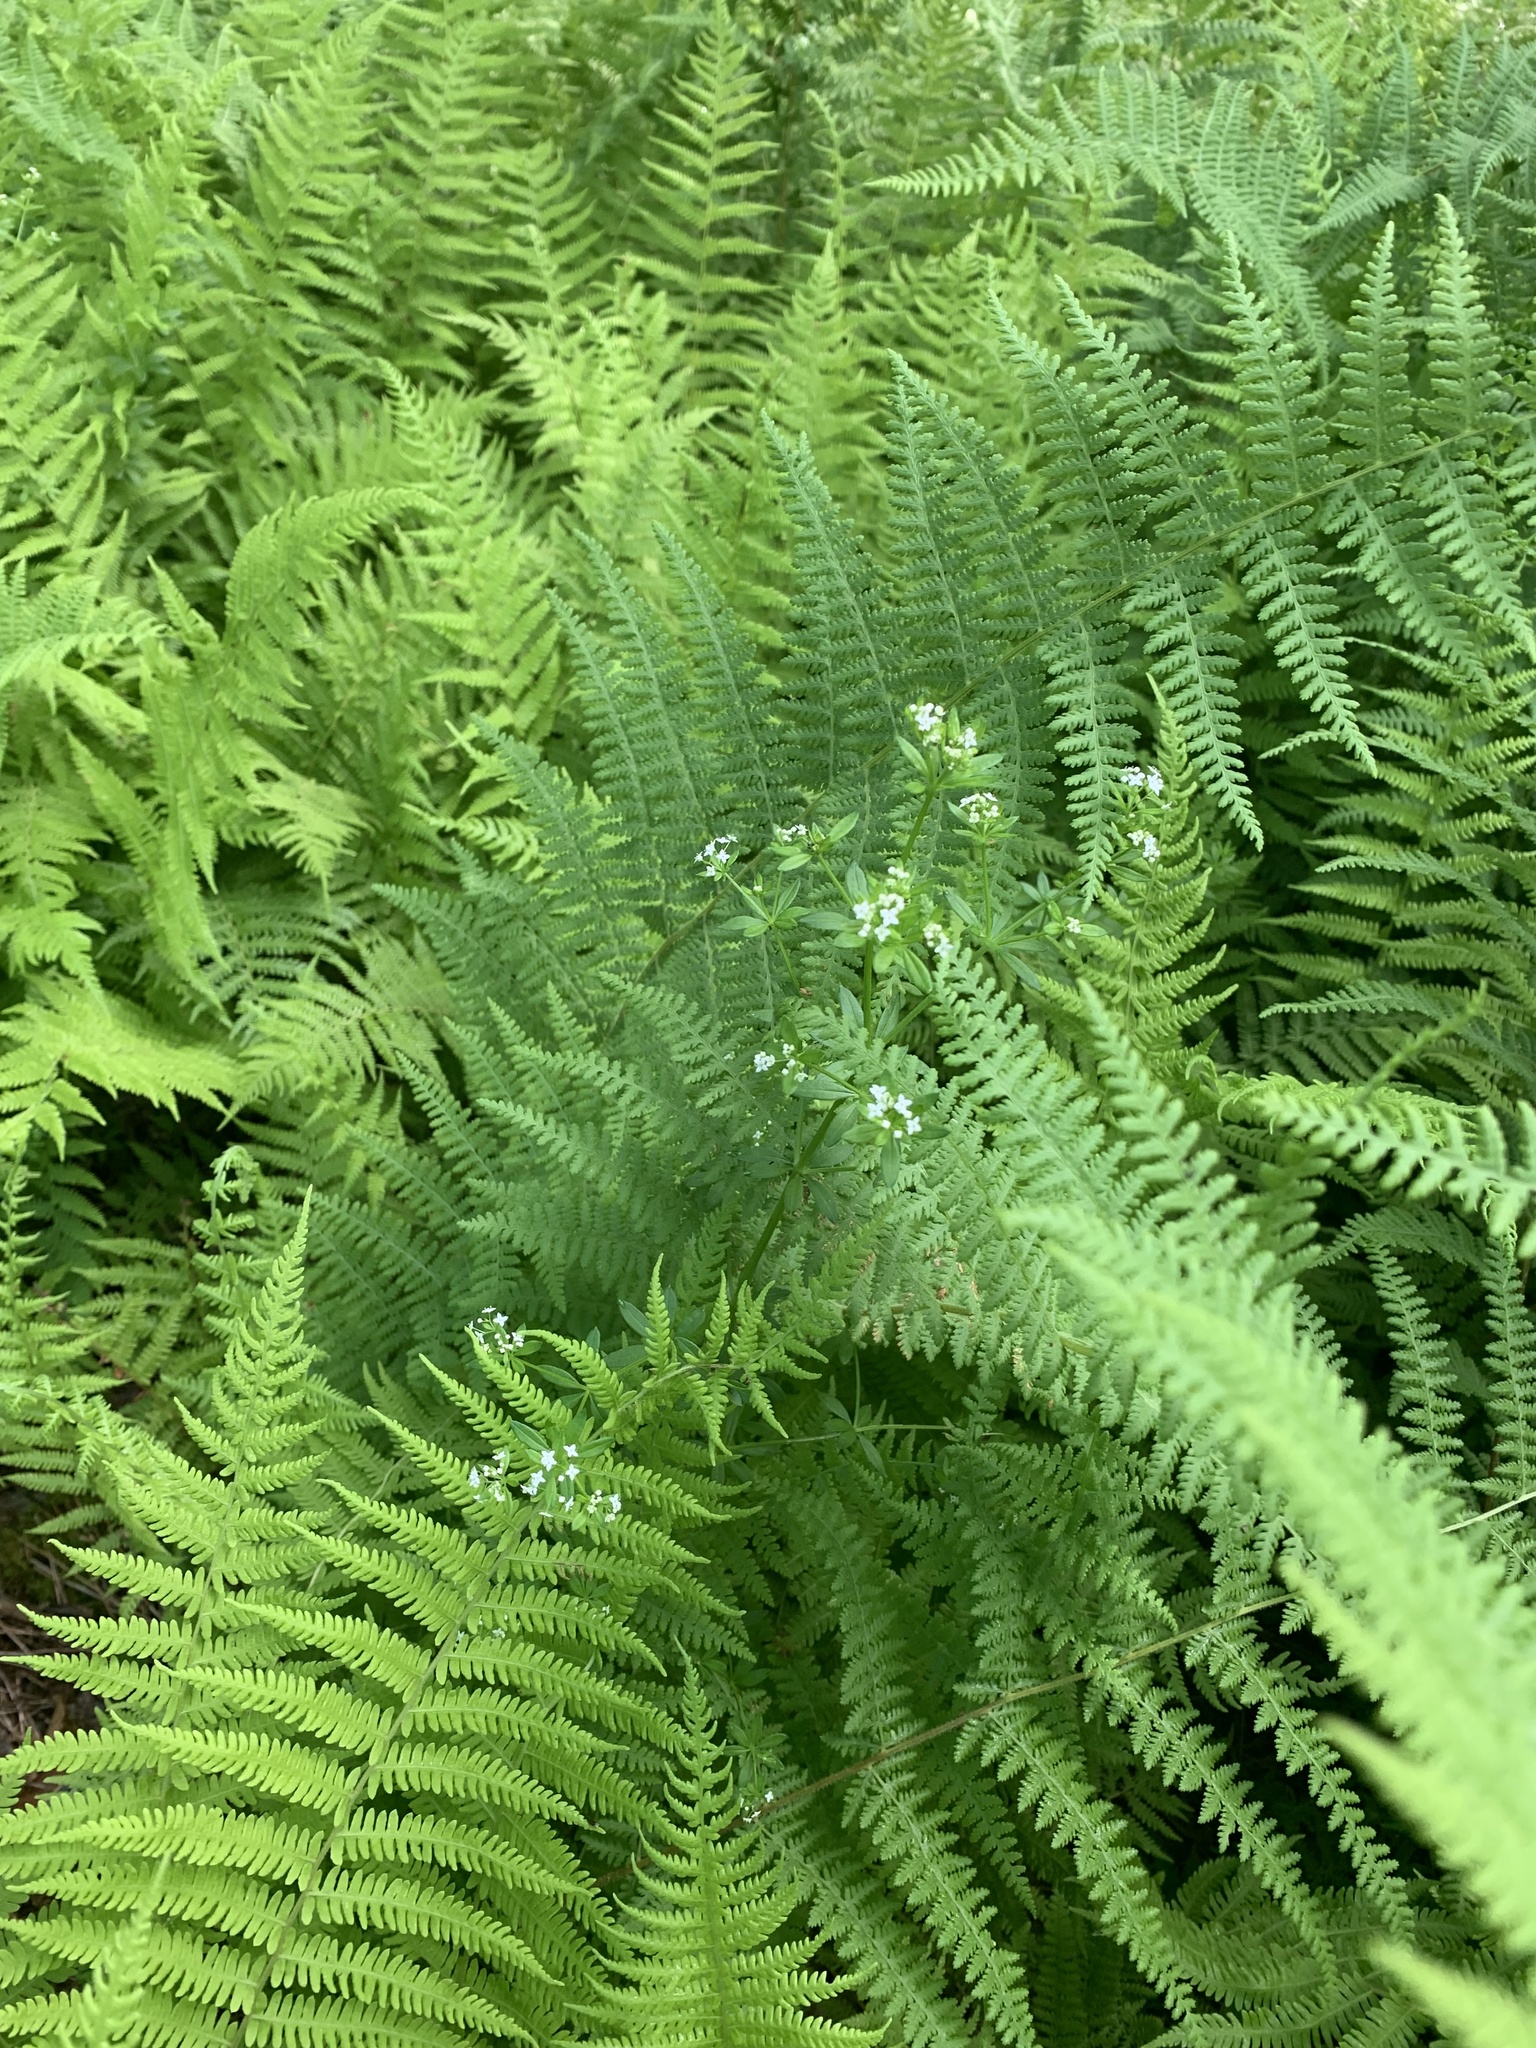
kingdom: Plantae
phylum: Tracheophyta
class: Polypodiopsida
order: Polypodiales
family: Dennstaedtiaceae
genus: Sitobolium
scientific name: Sitobolium punctilobum
